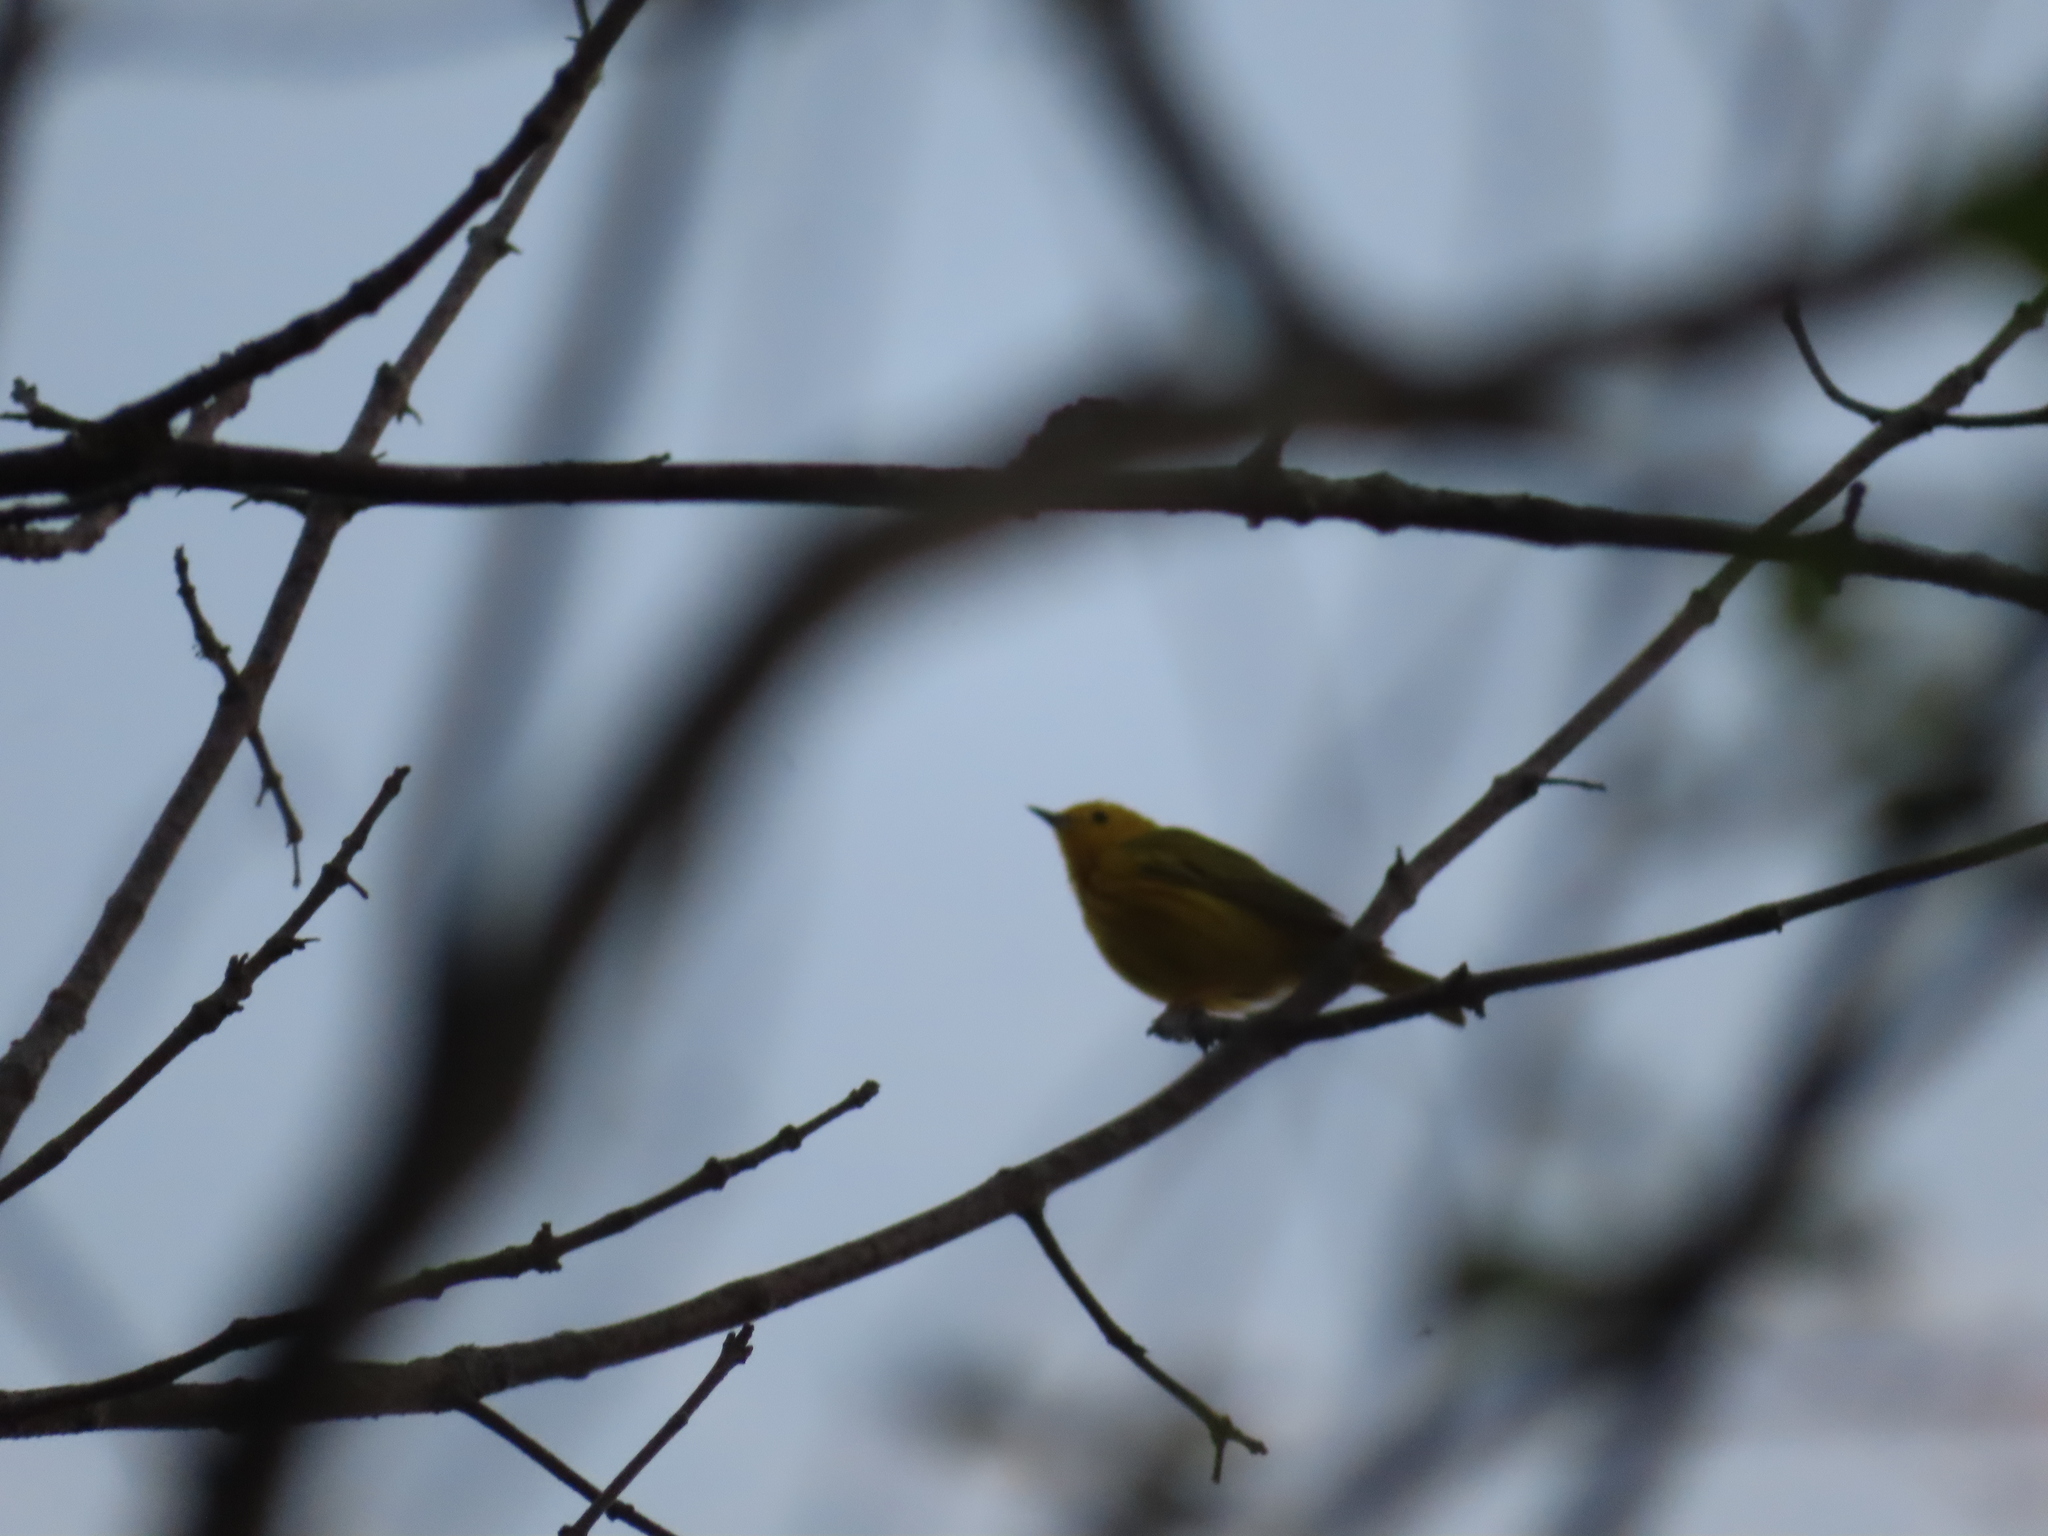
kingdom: Animalia
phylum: Chordata
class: Aves
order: Passeriformes
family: Parulidae
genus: Setophaga
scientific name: Setophaga petechia
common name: Yellow warbler
